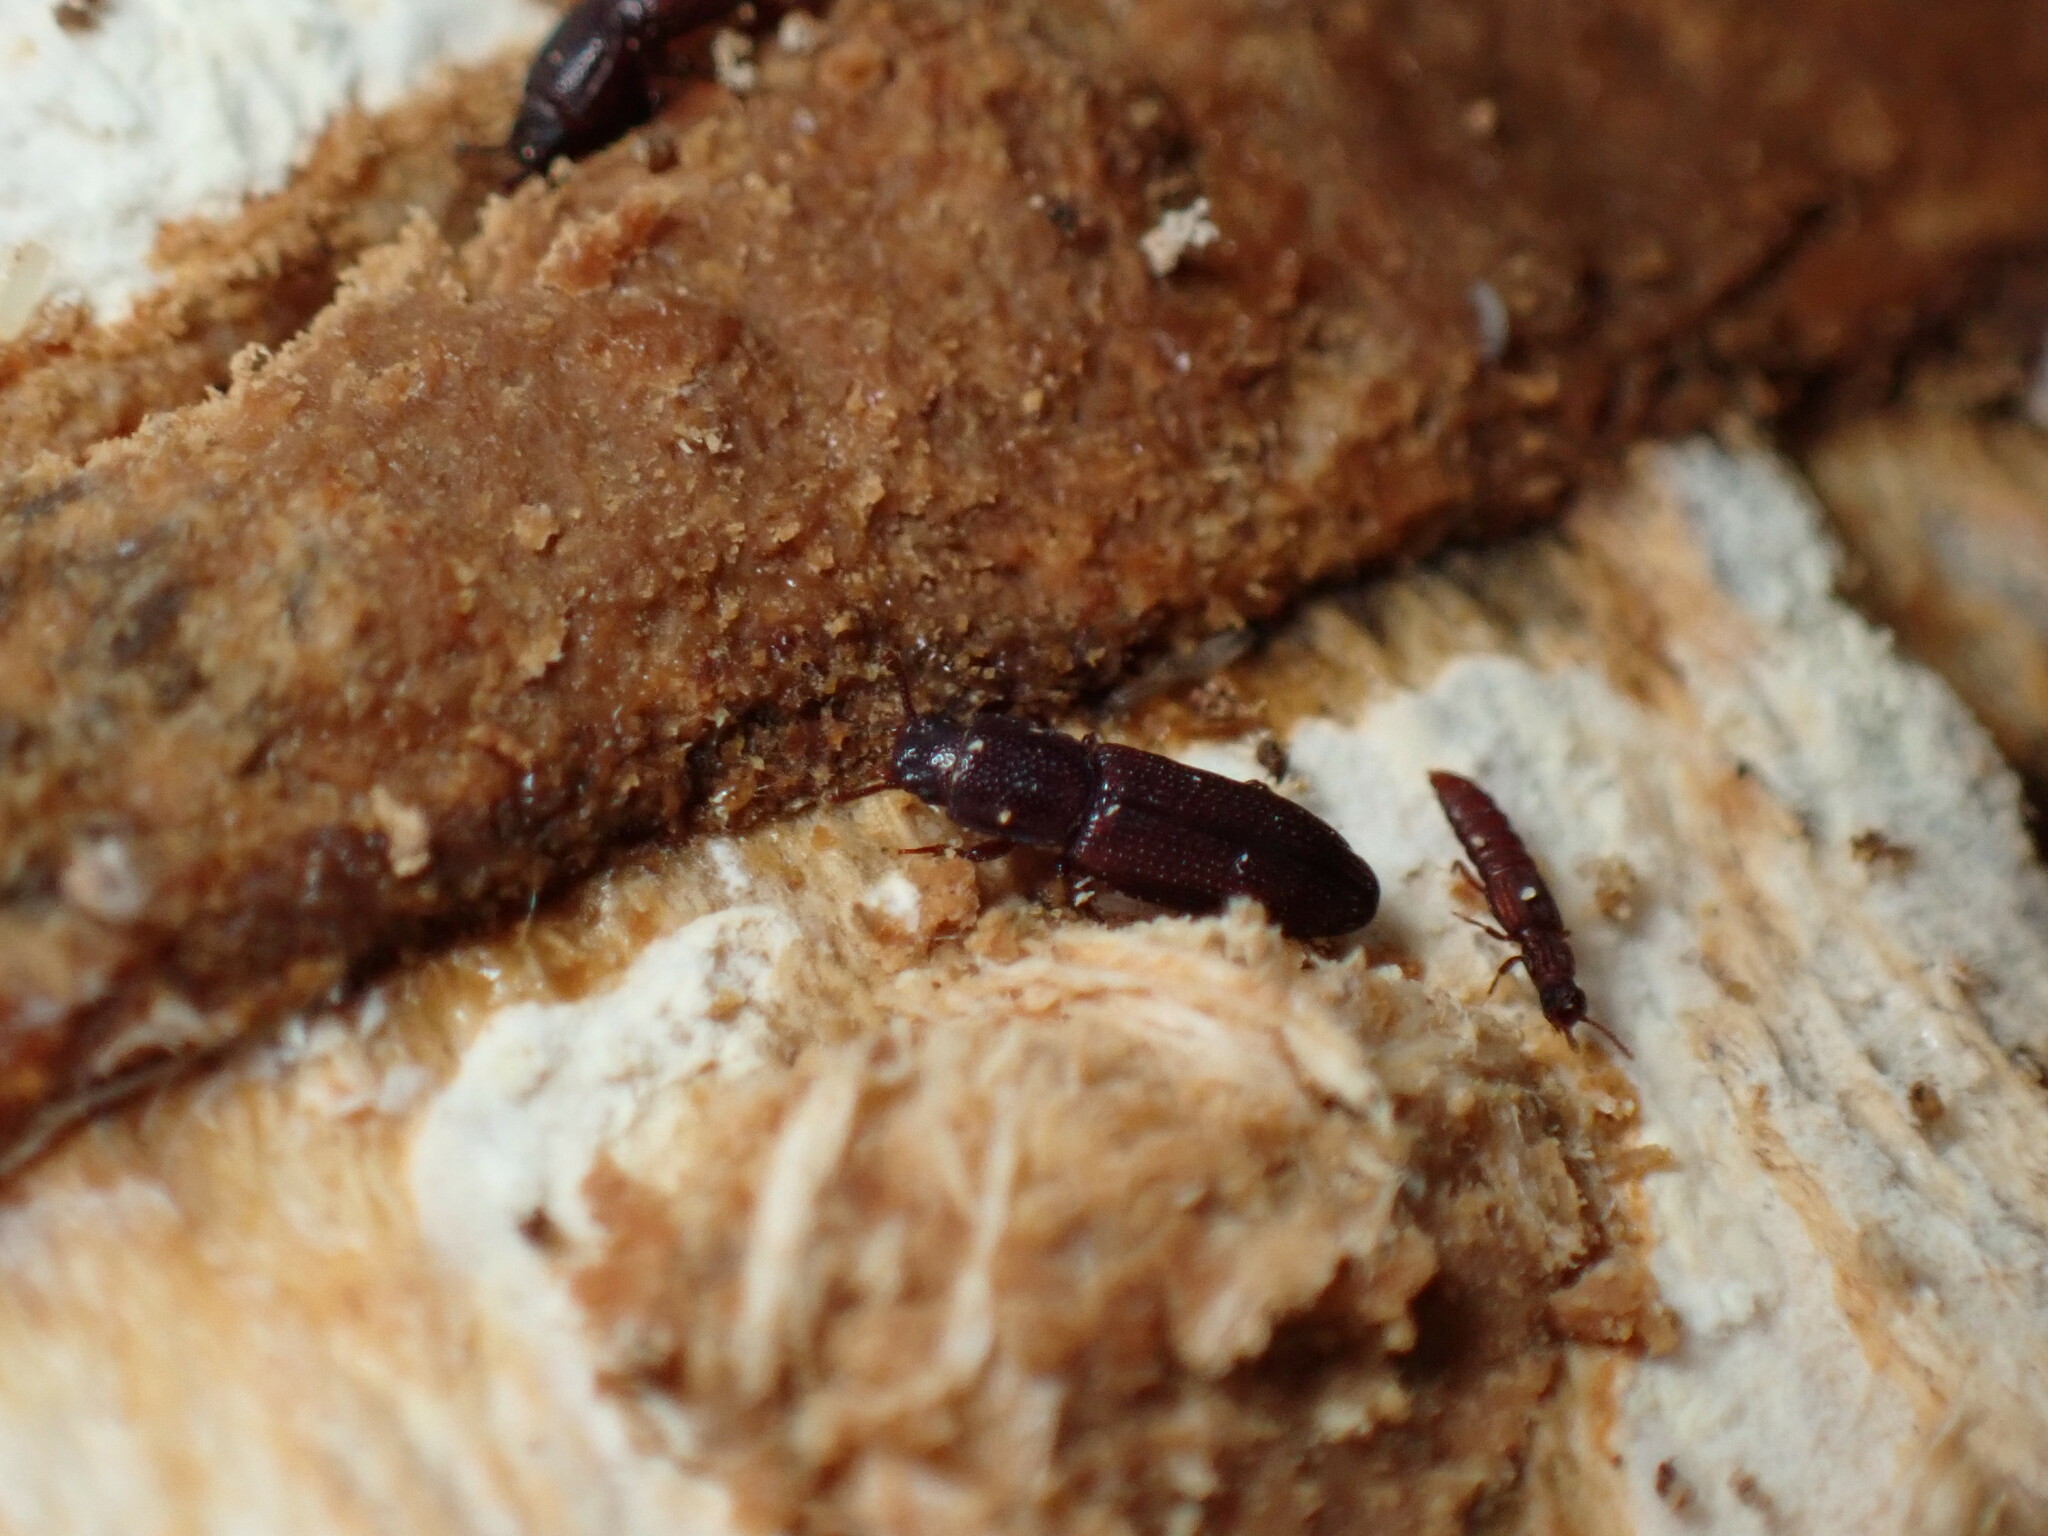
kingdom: Animalia
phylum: Arthropoda
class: Insecta
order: Coleoptera
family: Staphylinidae
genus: Thoracophorus
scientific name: Thoracophorus costalis
